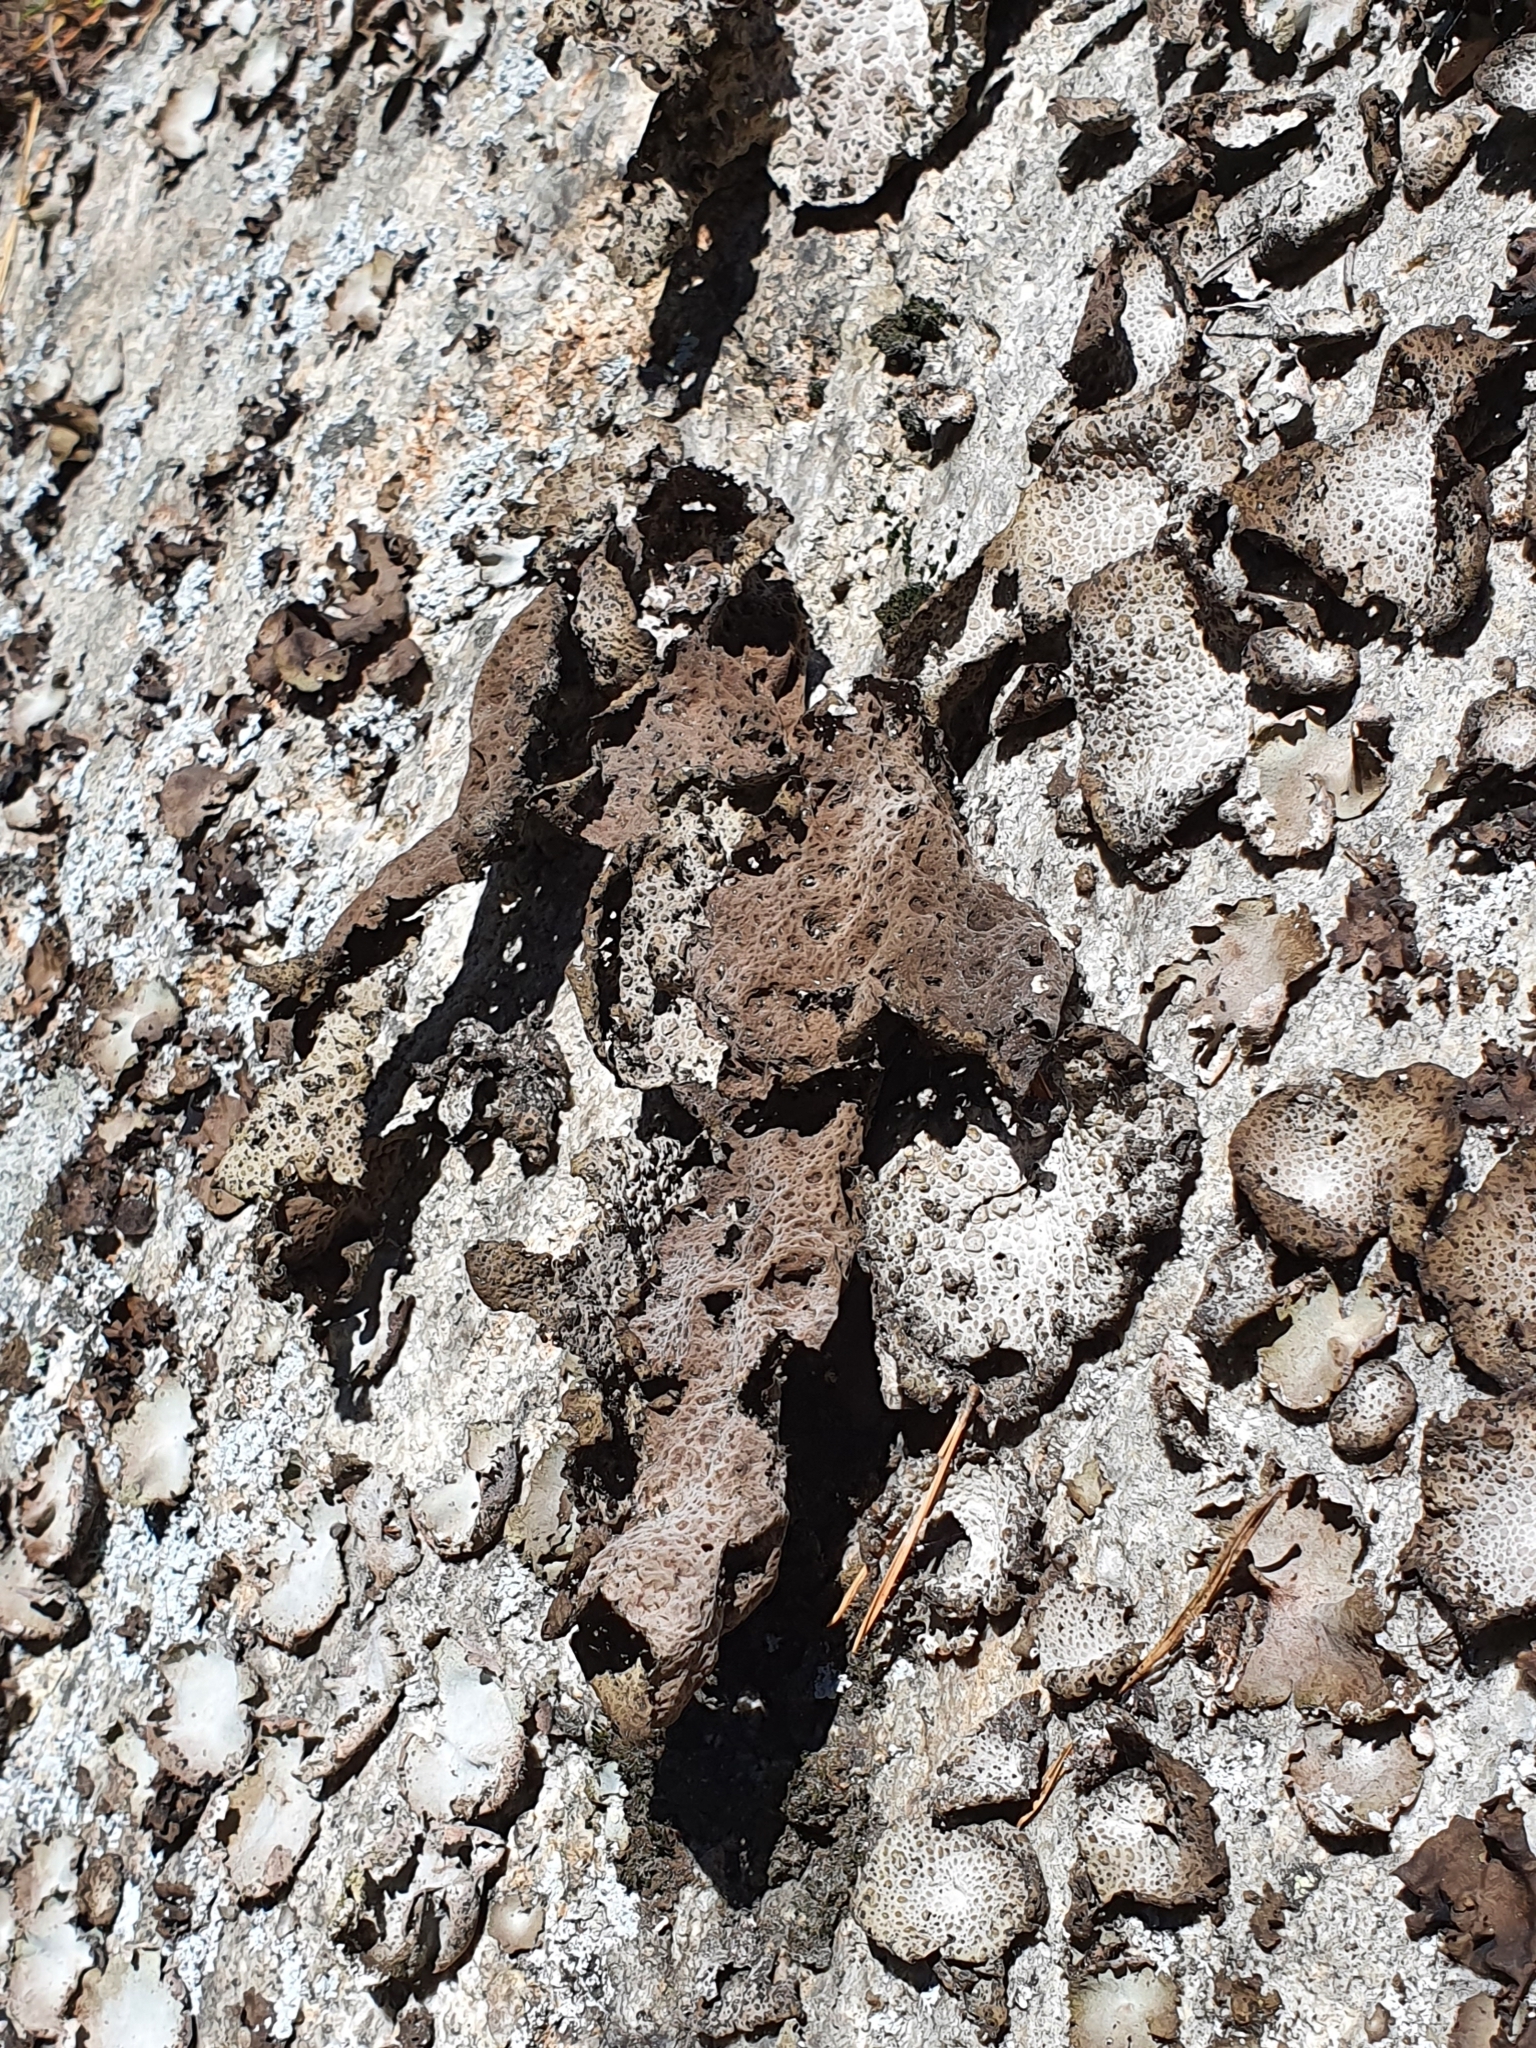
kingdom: Fungi
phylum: Ascomycota
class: Lecanoromycetes
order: Umbilicariales
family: Umbilicariaceae
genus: Lasallia
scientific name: Lasallia pustulata
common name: Blistered toadskin lichen
